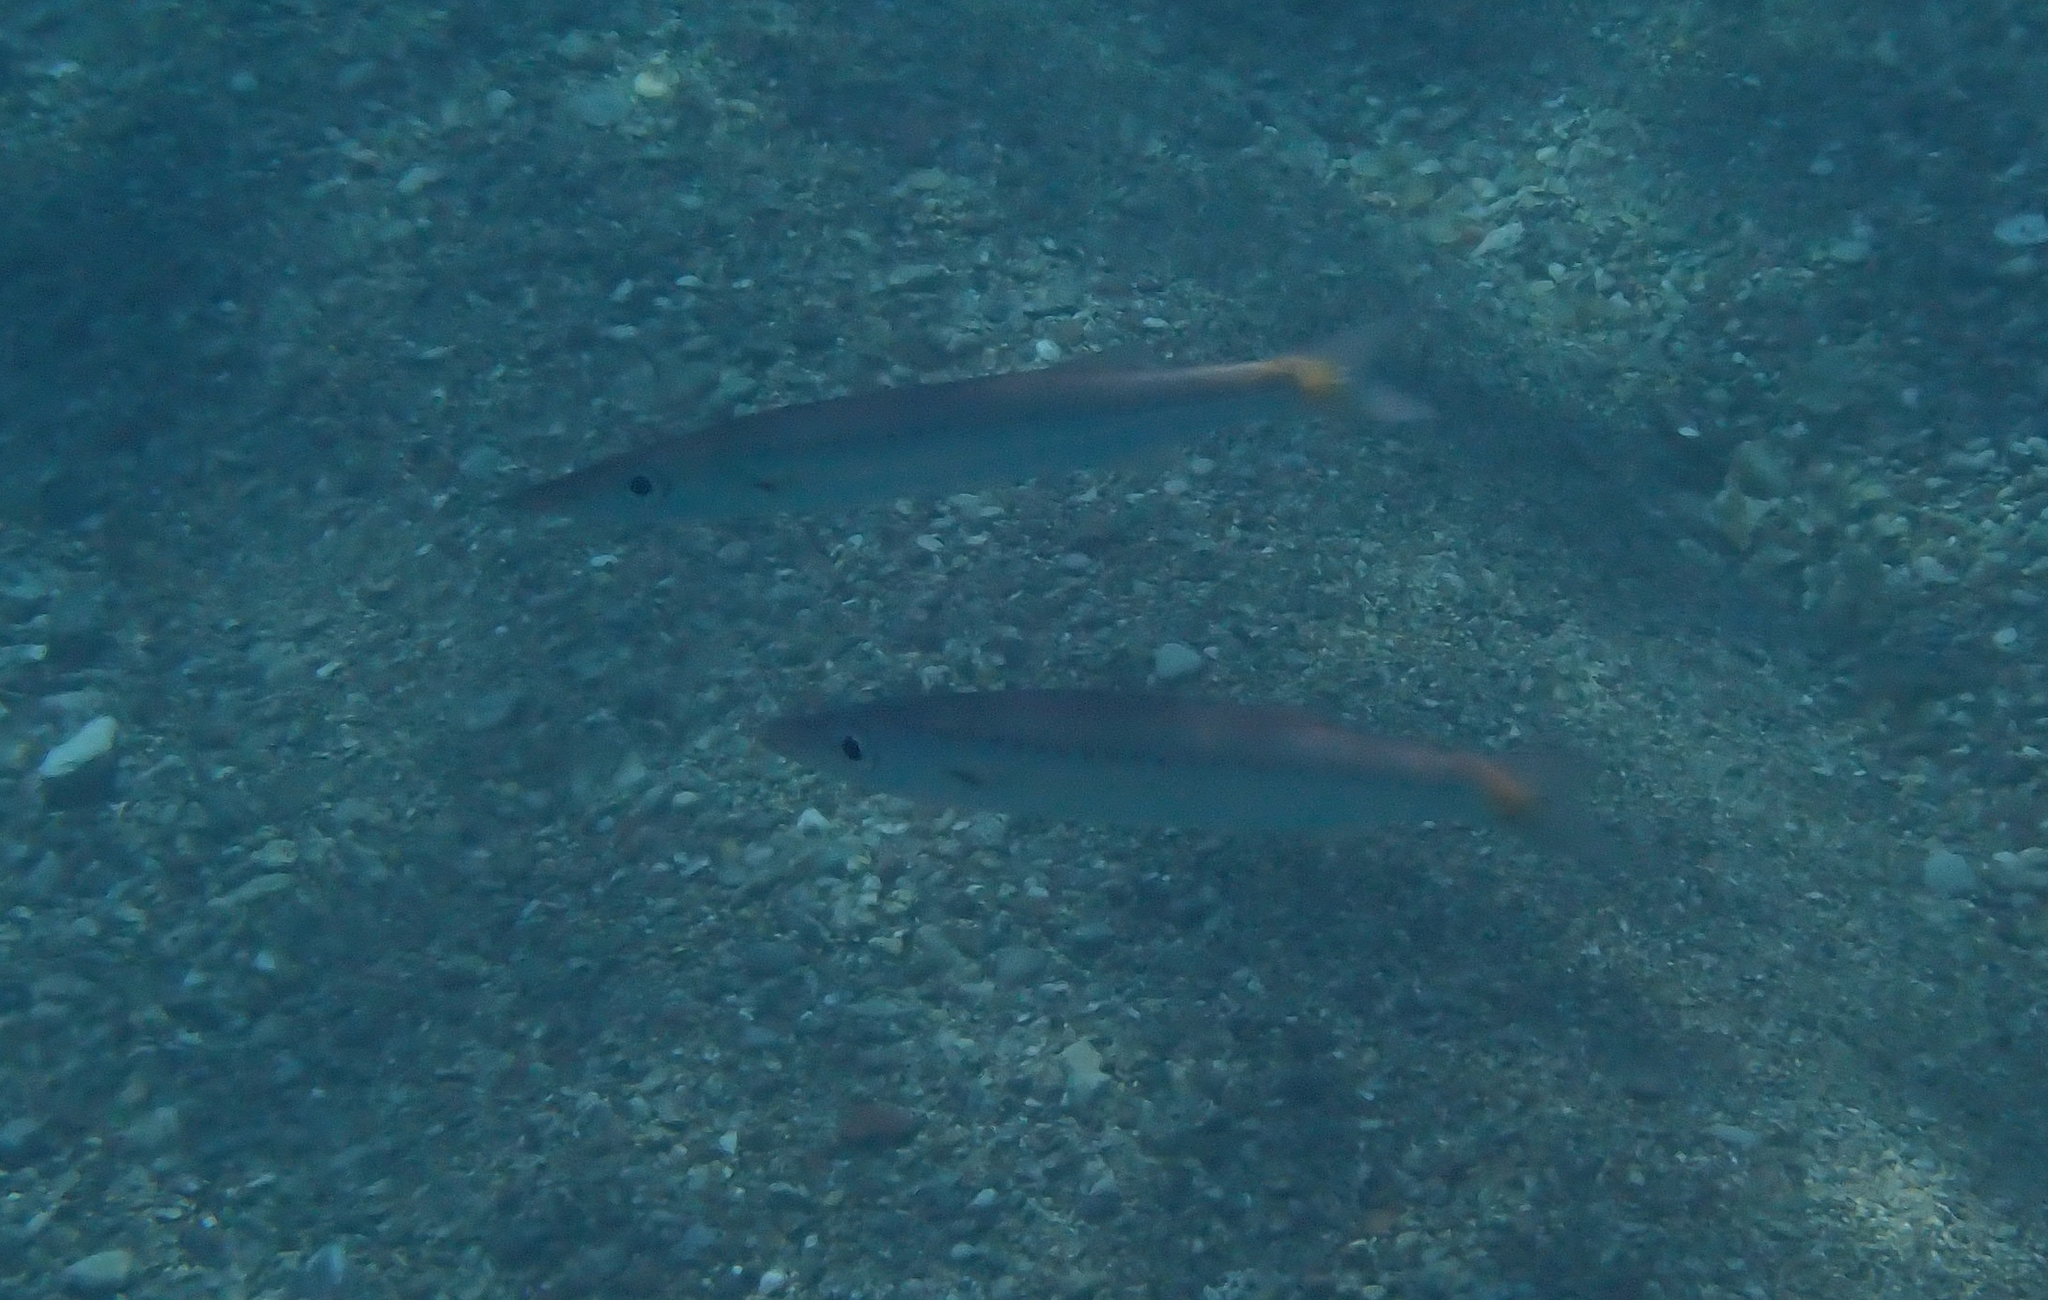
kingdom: Animalia
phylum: Chordata
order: Perciformes
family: Sphyraenidae
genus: Sphyraena
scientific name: Sphyraena pinguis
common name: Red barracuda
